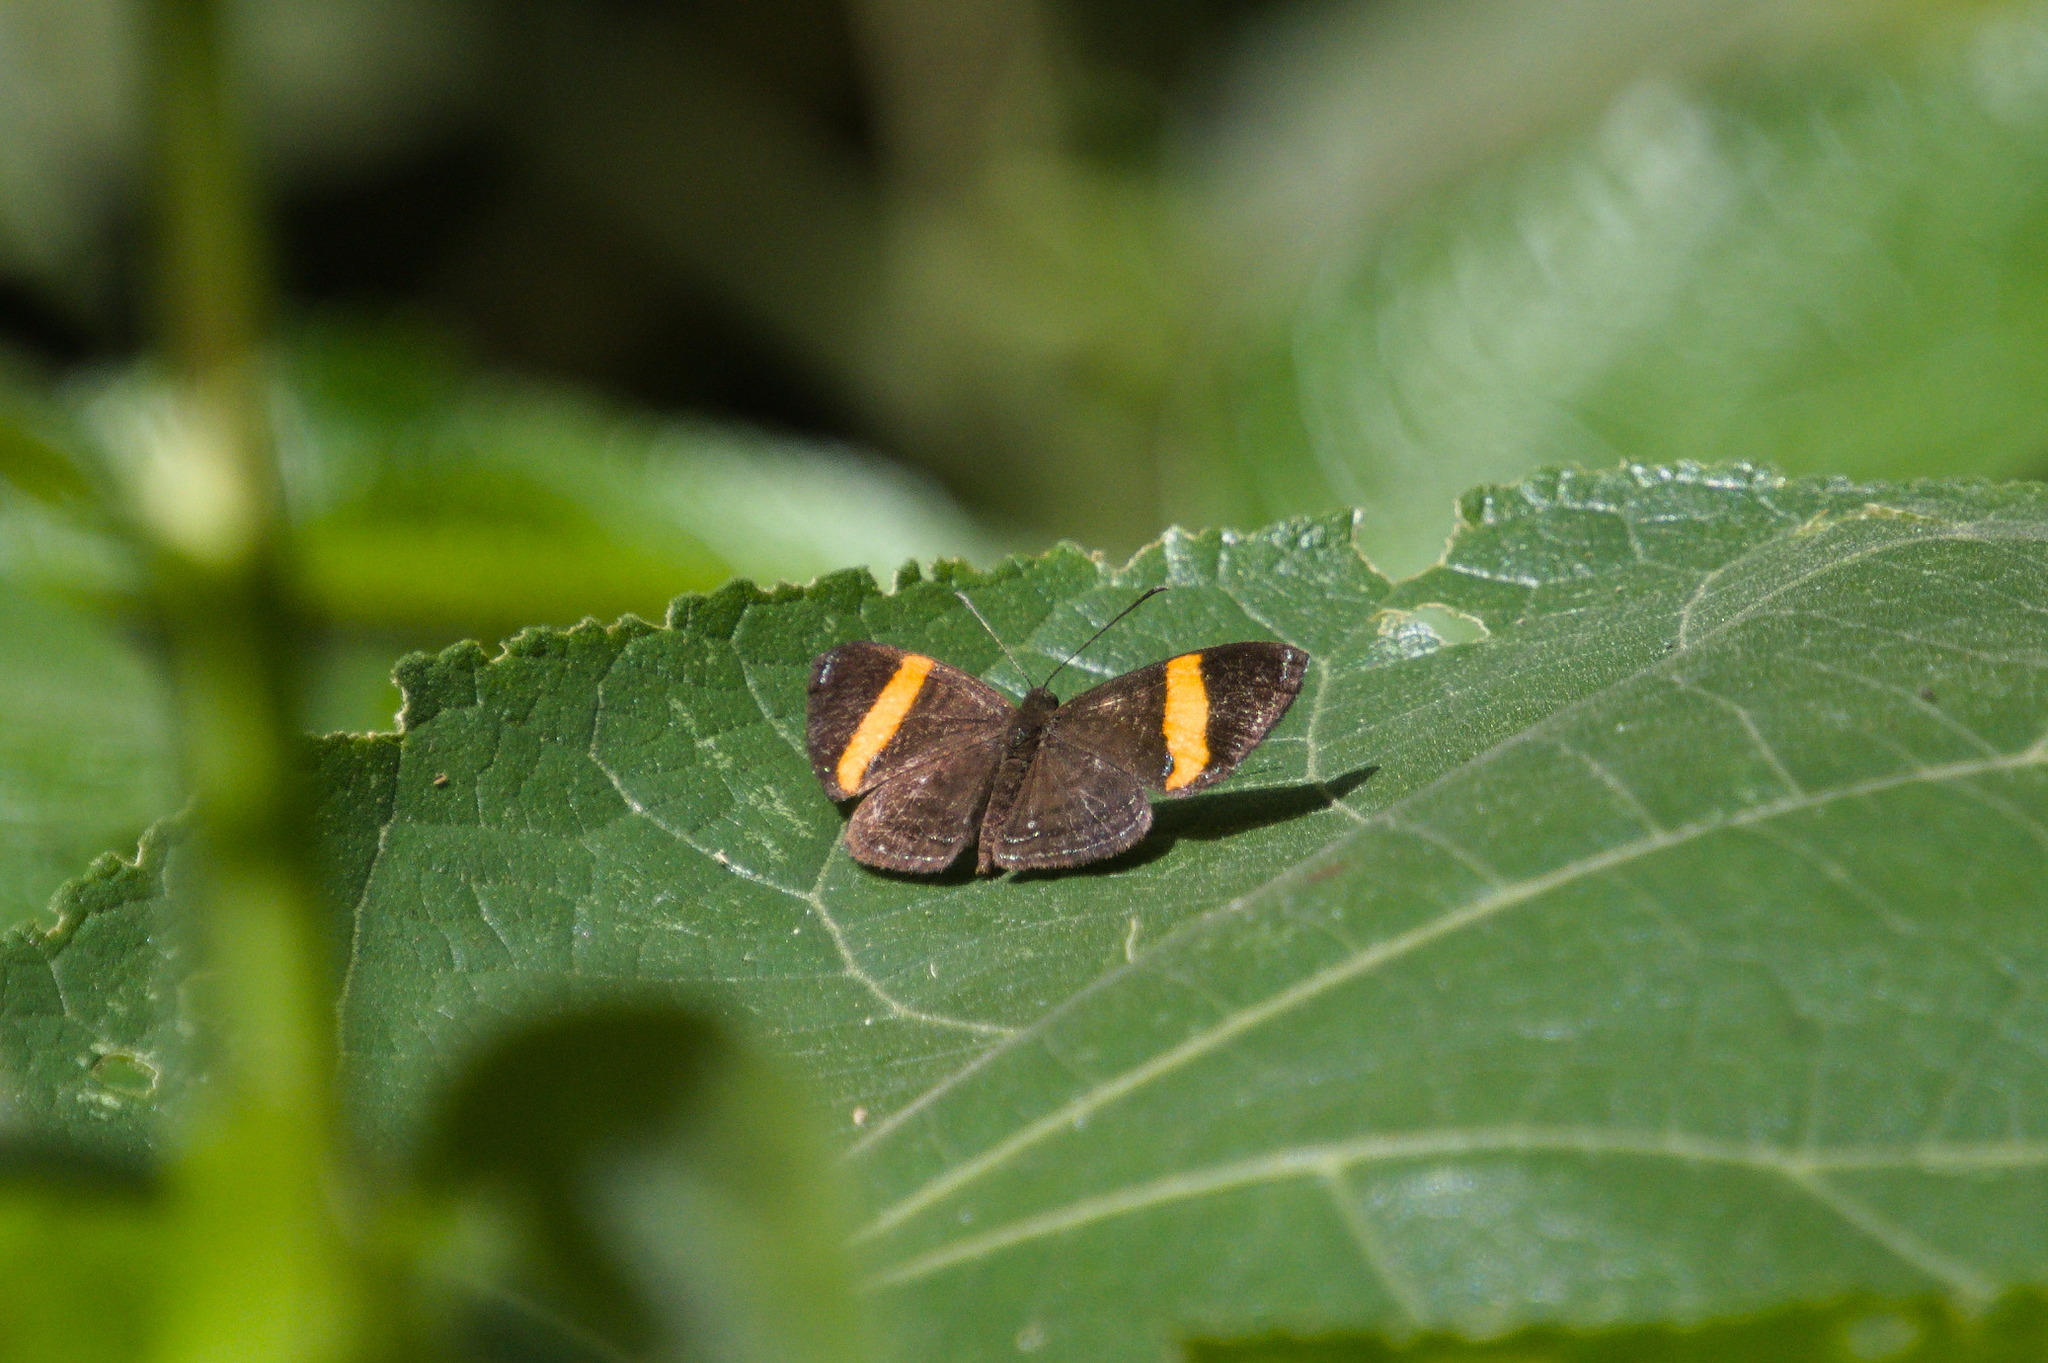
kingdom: Animalia
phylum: Arthropoda
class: Insecta
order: Lepidoptera
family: Riodinidae
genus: Crocozona
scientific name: Crocozona pheretima
